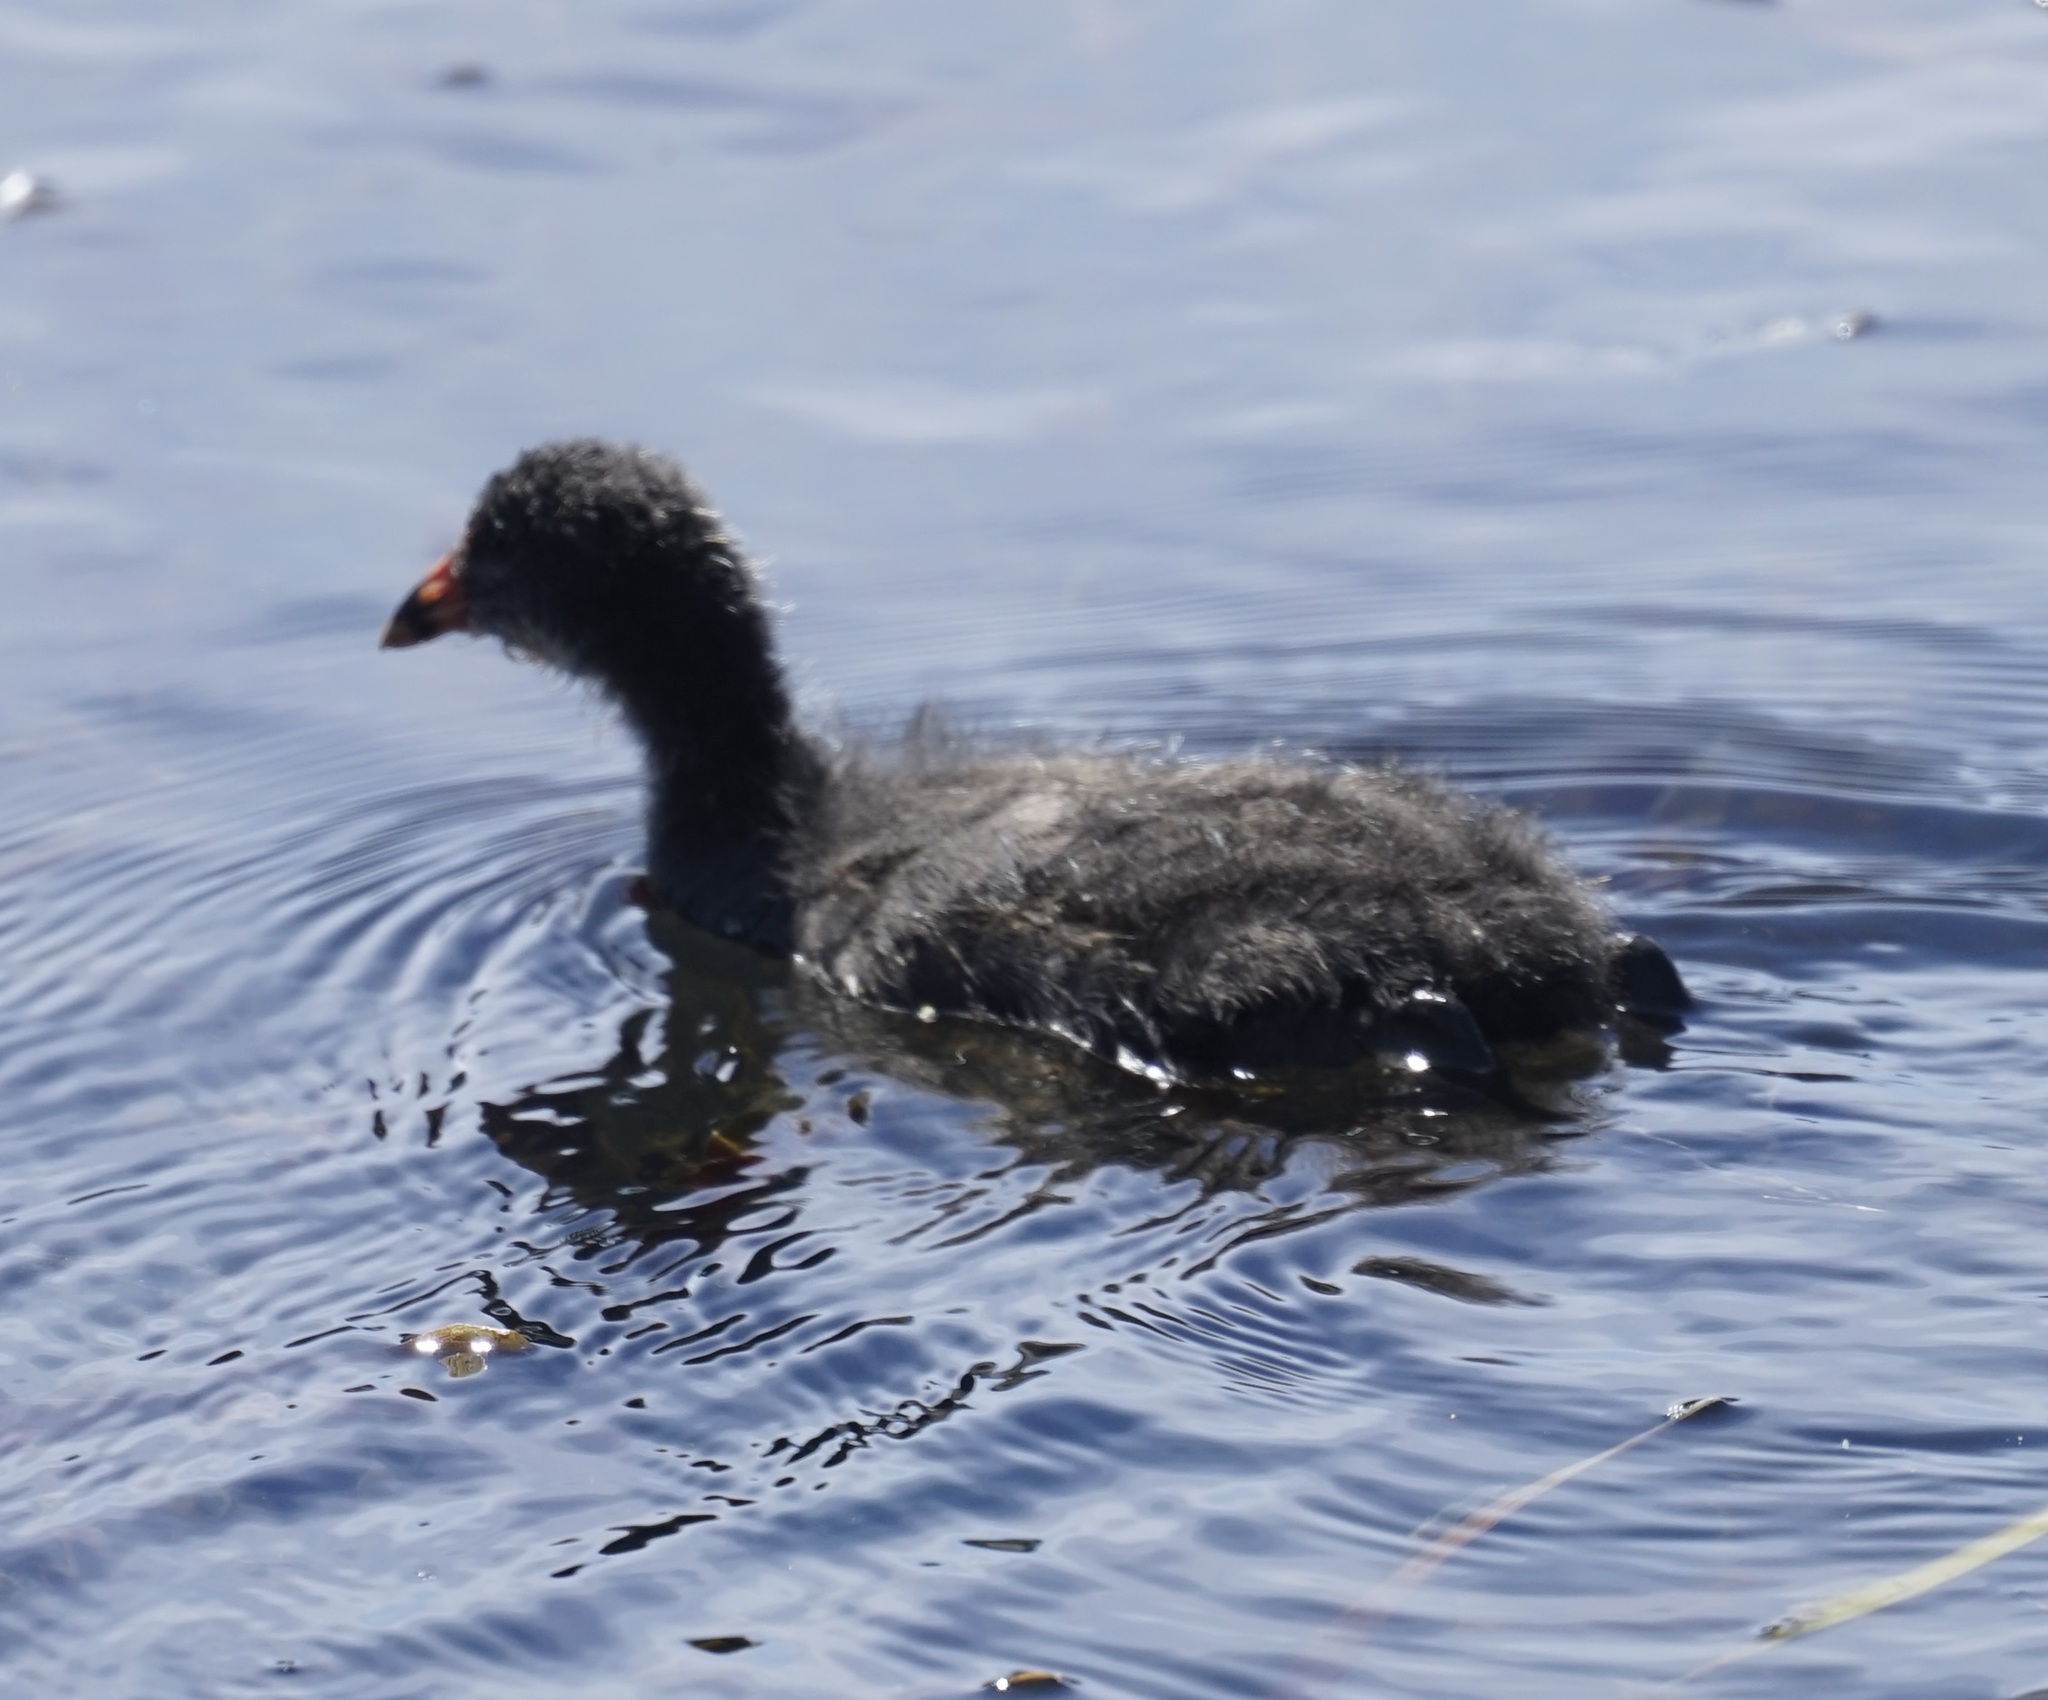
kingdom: Animalia
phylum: Chordata
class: Aves
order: Gruiformes
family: Rallidae
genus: Gallinula
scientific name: Gallinula tenebrosa
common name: Dusky moorhen
